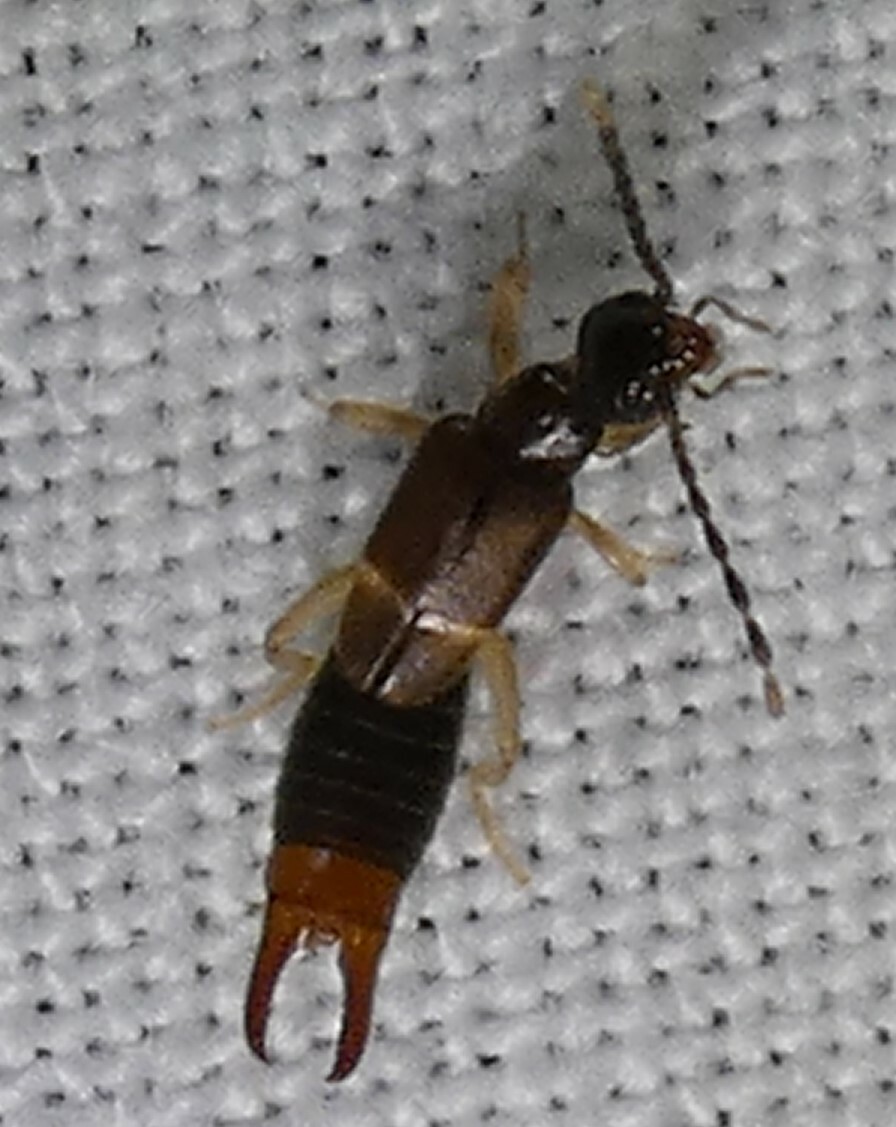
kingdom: Animalia
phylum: Arthropoda
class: Insecta
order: Dermaptera
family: Spongiphoridae
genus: Labia
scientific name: Labia minor
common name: Lesser earwig
